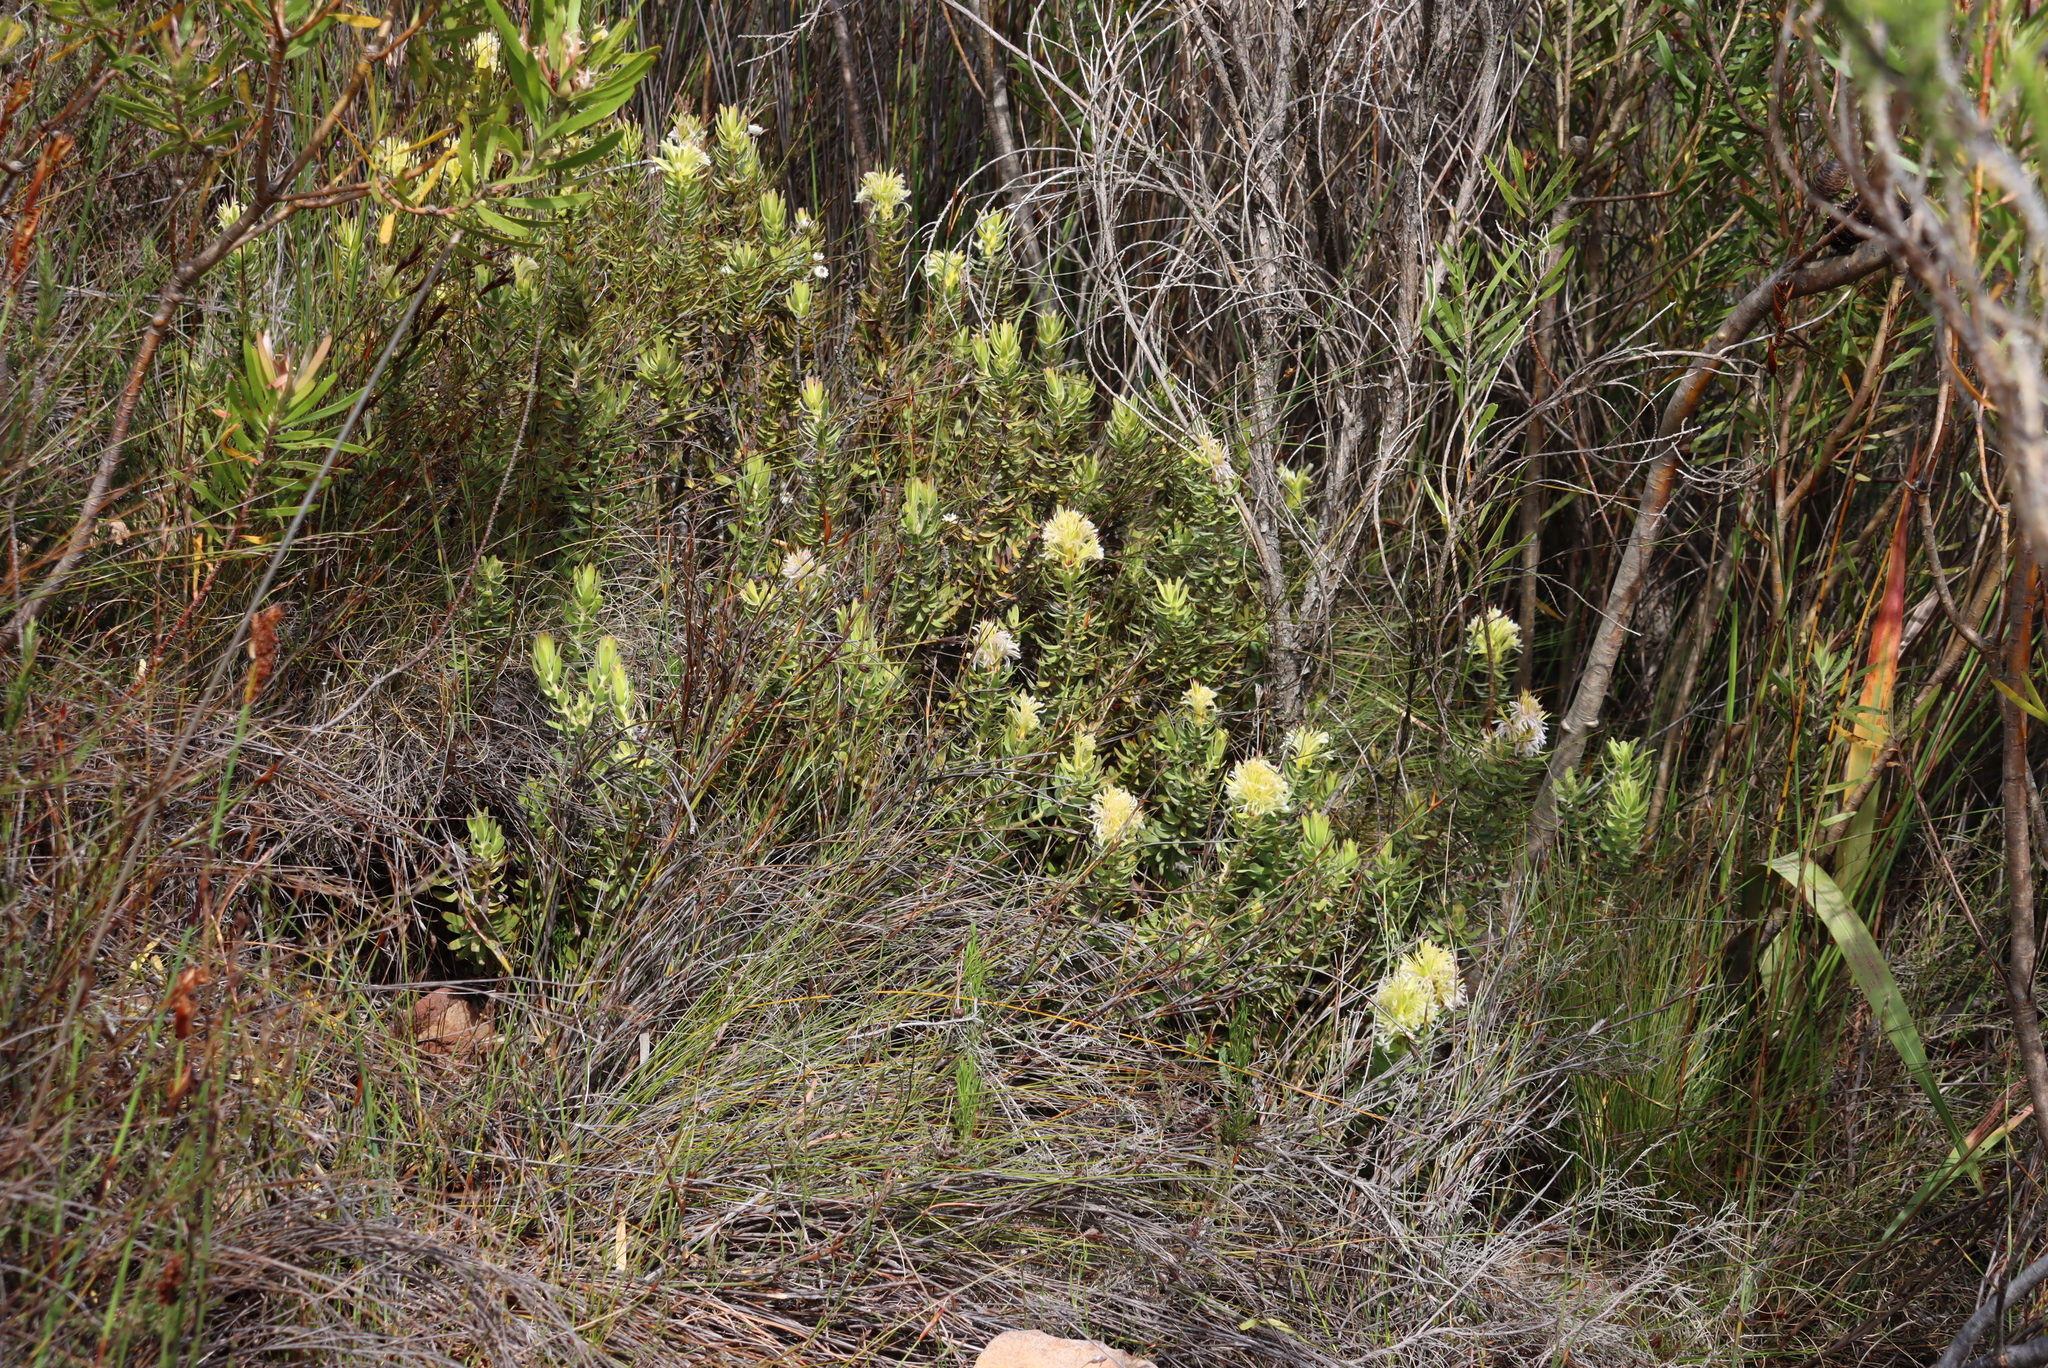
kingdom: Plantae
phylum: Tracheophyta
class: Magnoliopsida
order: Proteales
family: Proteaceae
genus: Mimetes
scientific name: Mimetes cucullatus
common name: Common pagoda
